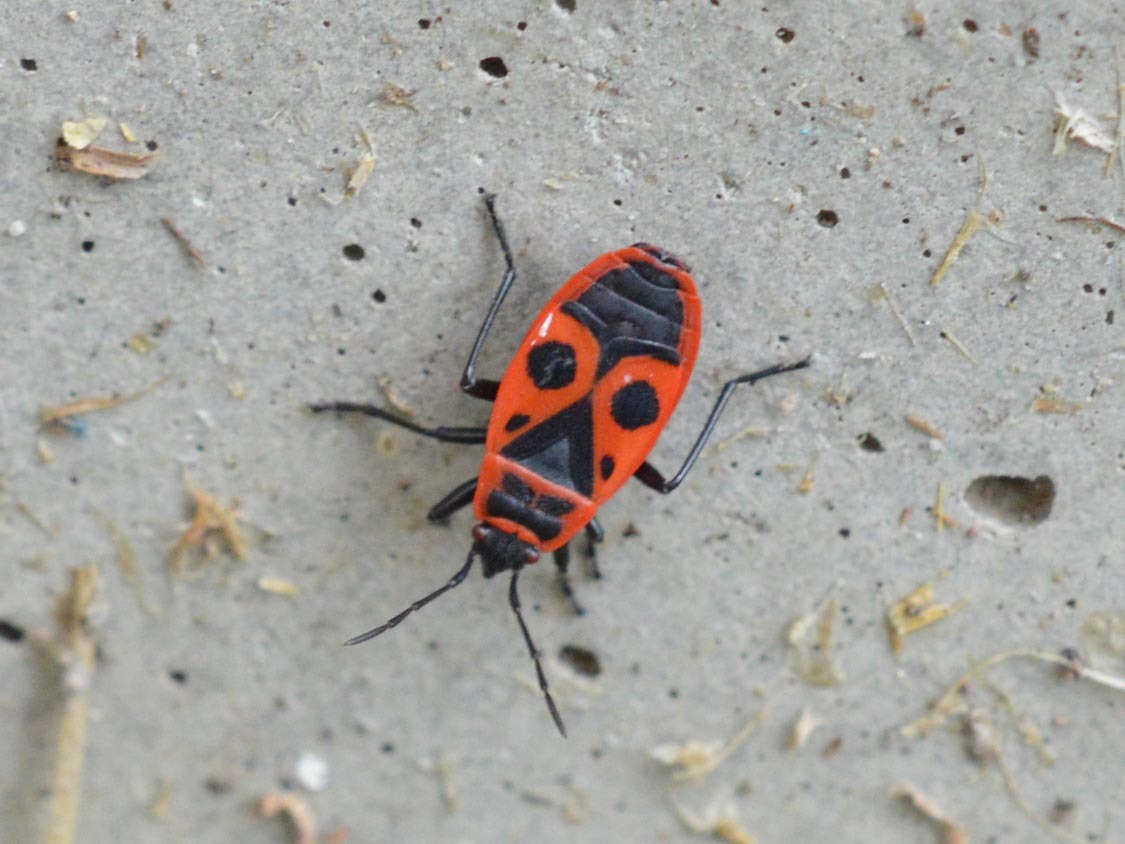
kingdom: Animalia
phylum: Arthropoda
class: Insecta
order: Hemiptera
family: Pyrrhocoridae
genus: Pyrrhocoris
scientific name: Pyrrhocoris apterus
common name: Firebug
